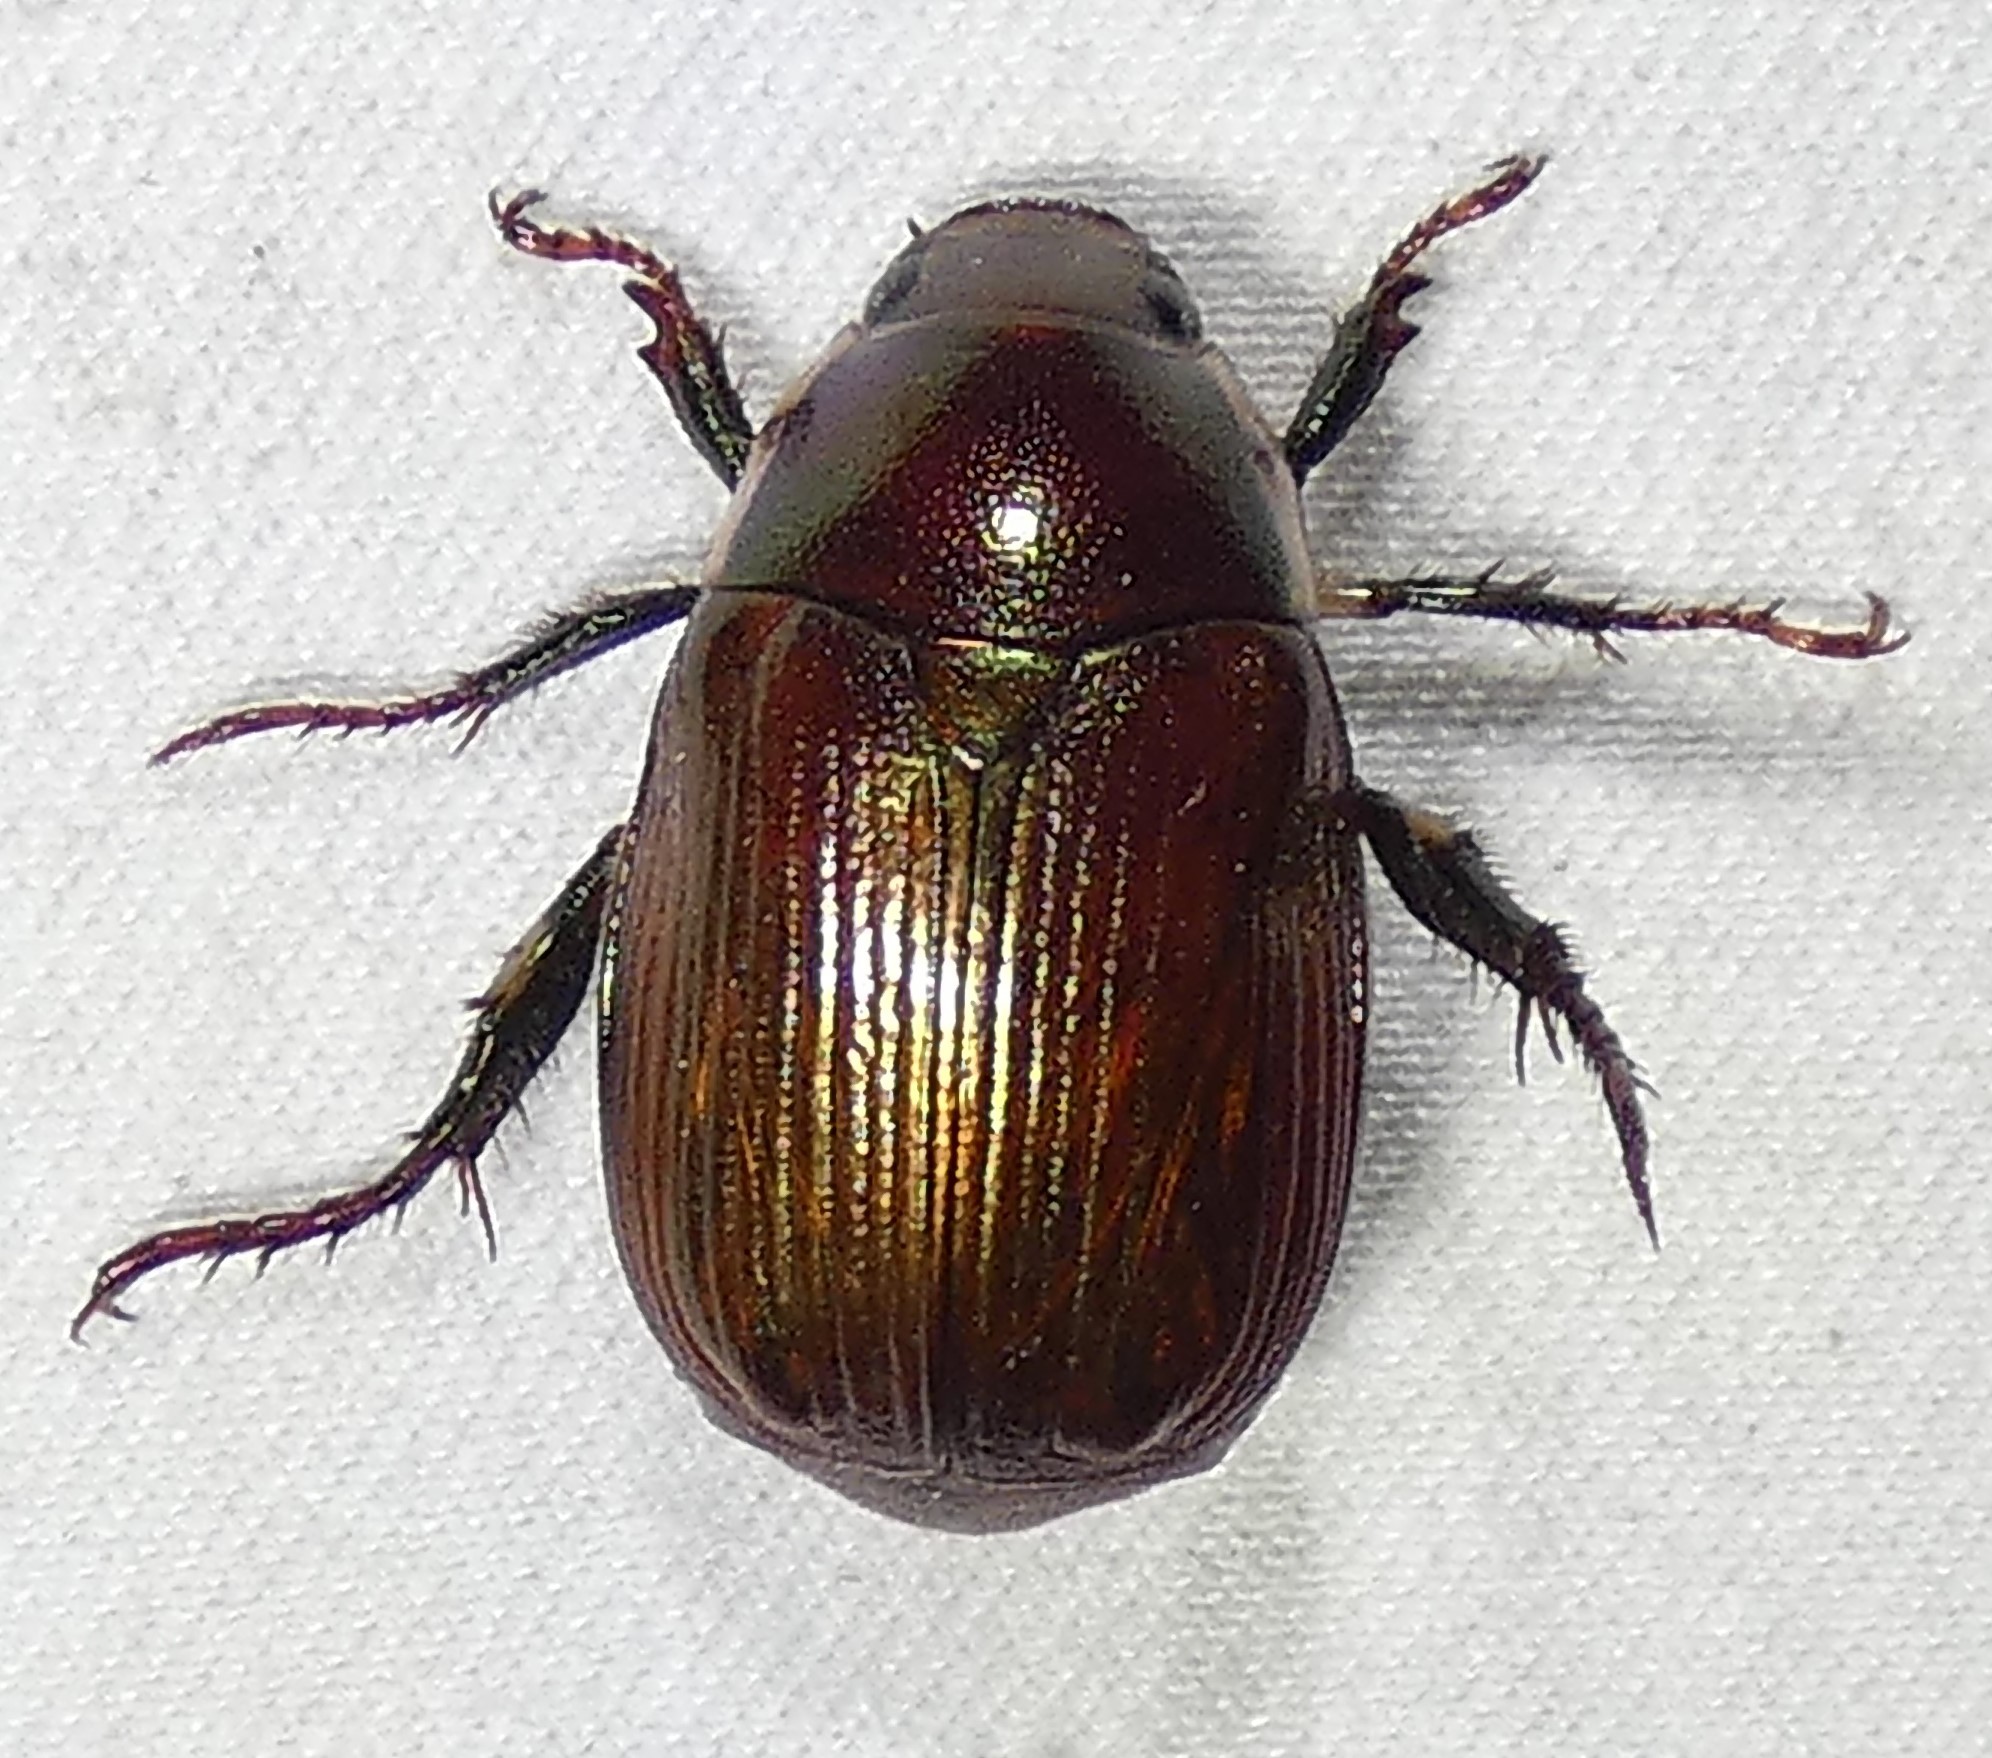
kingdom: Animalia
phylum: Arthropoda
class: Insecta
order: Coleoptera
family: Scarabaeidae
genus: Callistethus
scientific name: Callistethus marginatus
